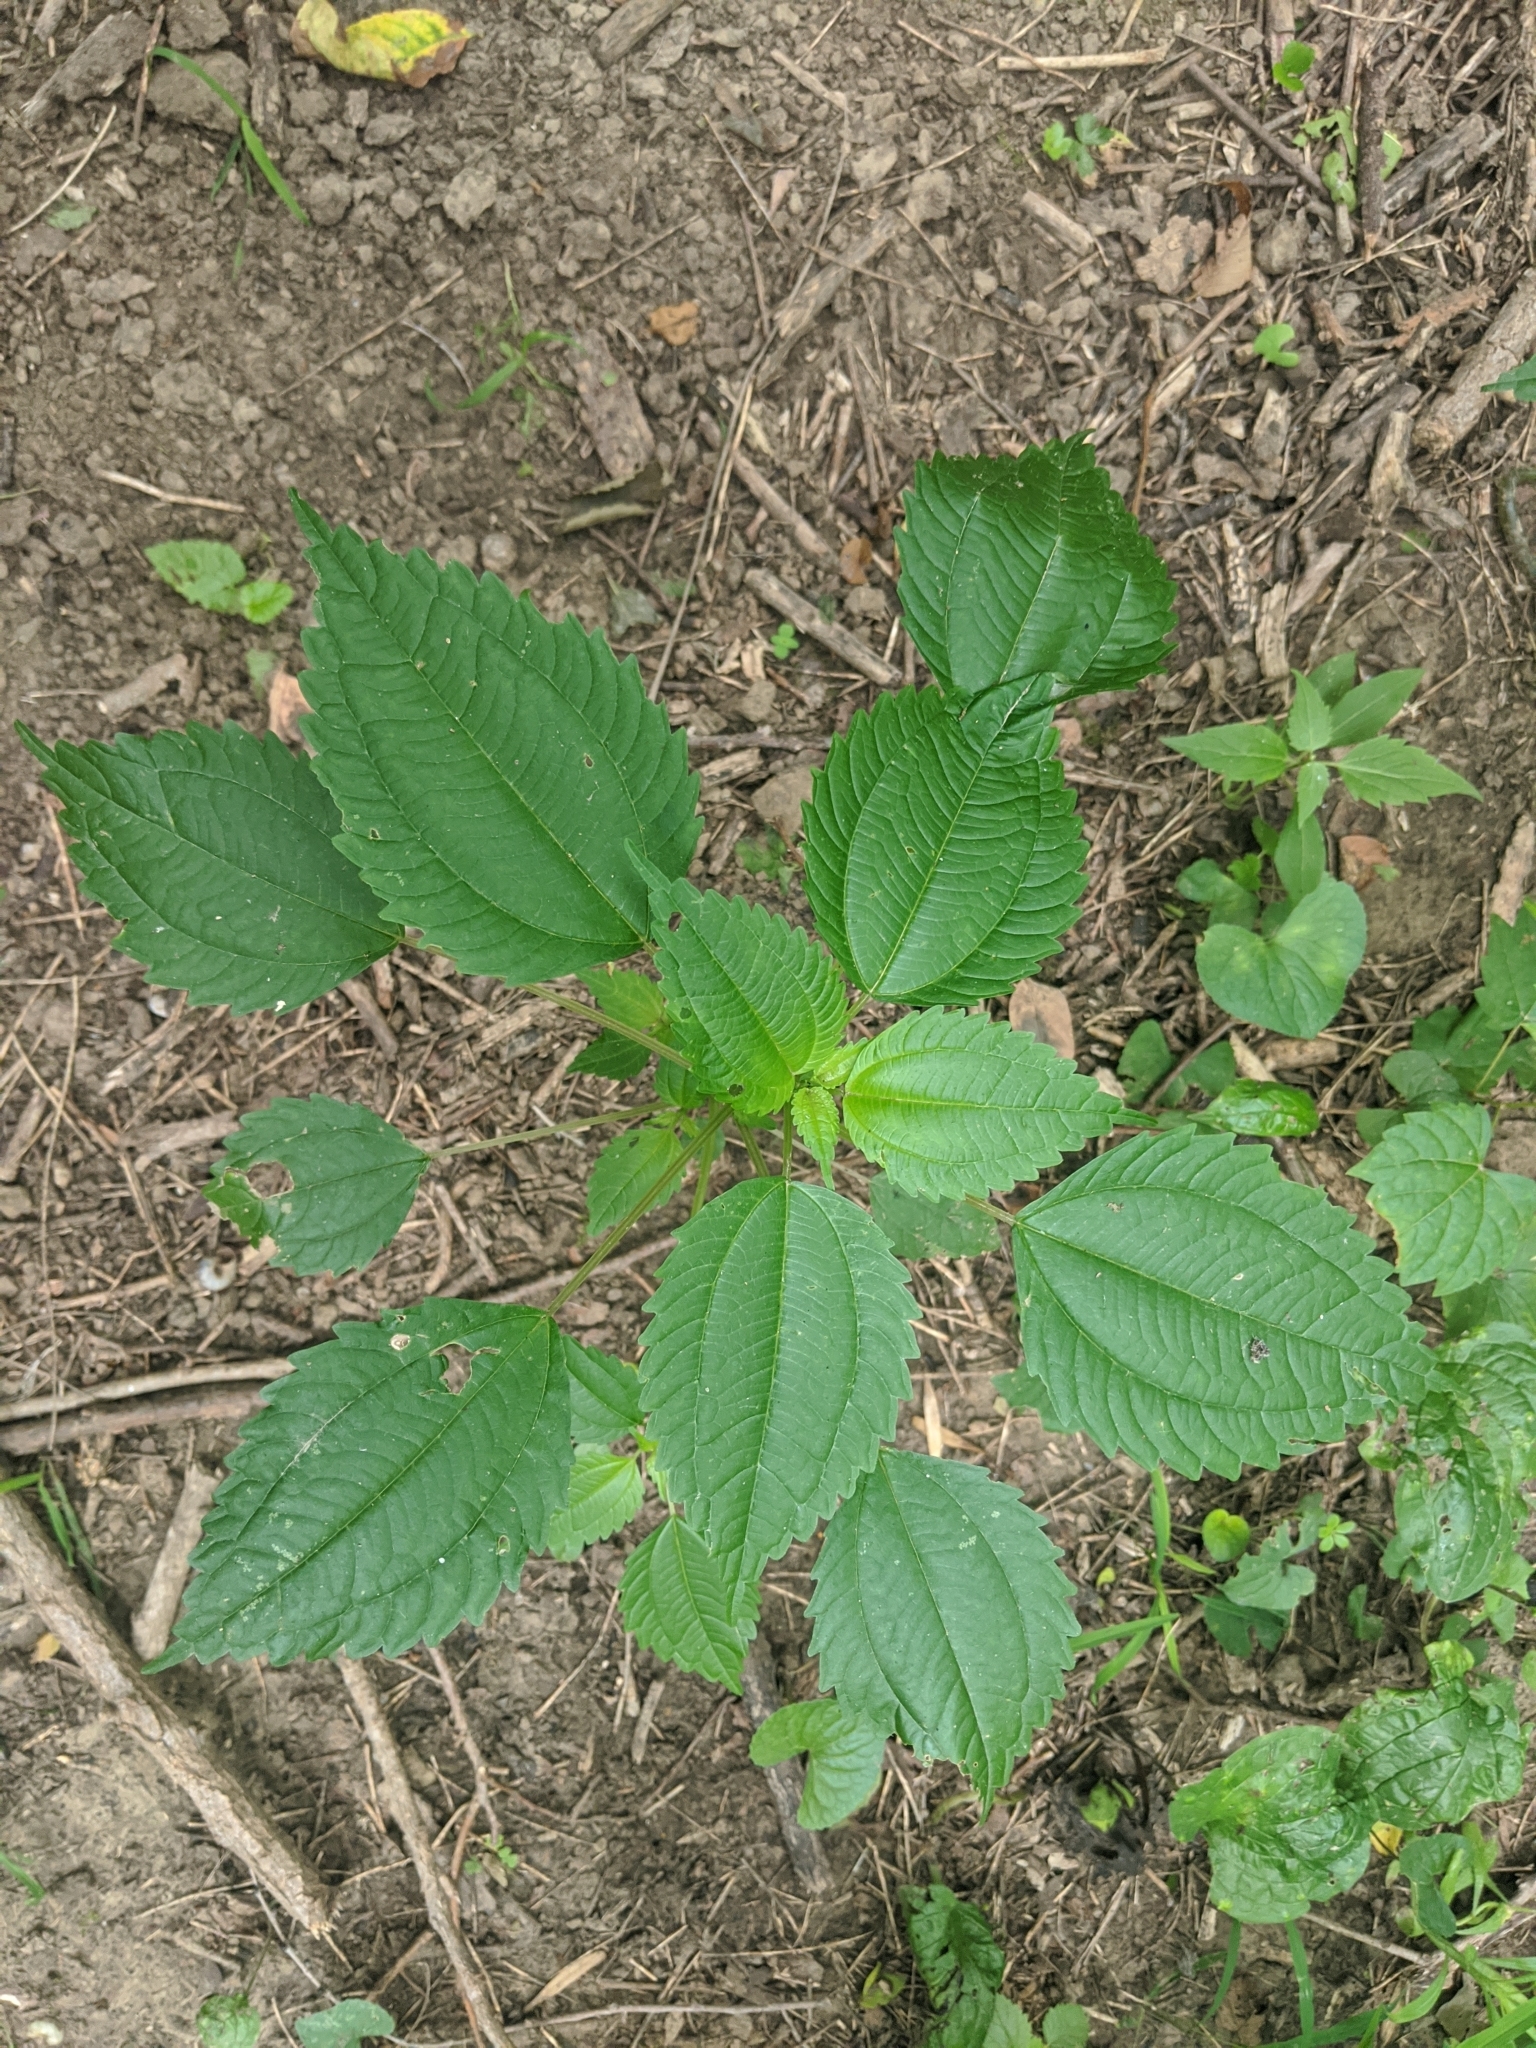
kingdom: Plantae
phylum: Tracheophyta
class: Magnoliopsida
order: Rosales
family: Urticaceae
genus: Pilea
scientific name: Pilea pumila
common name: Clearweed
